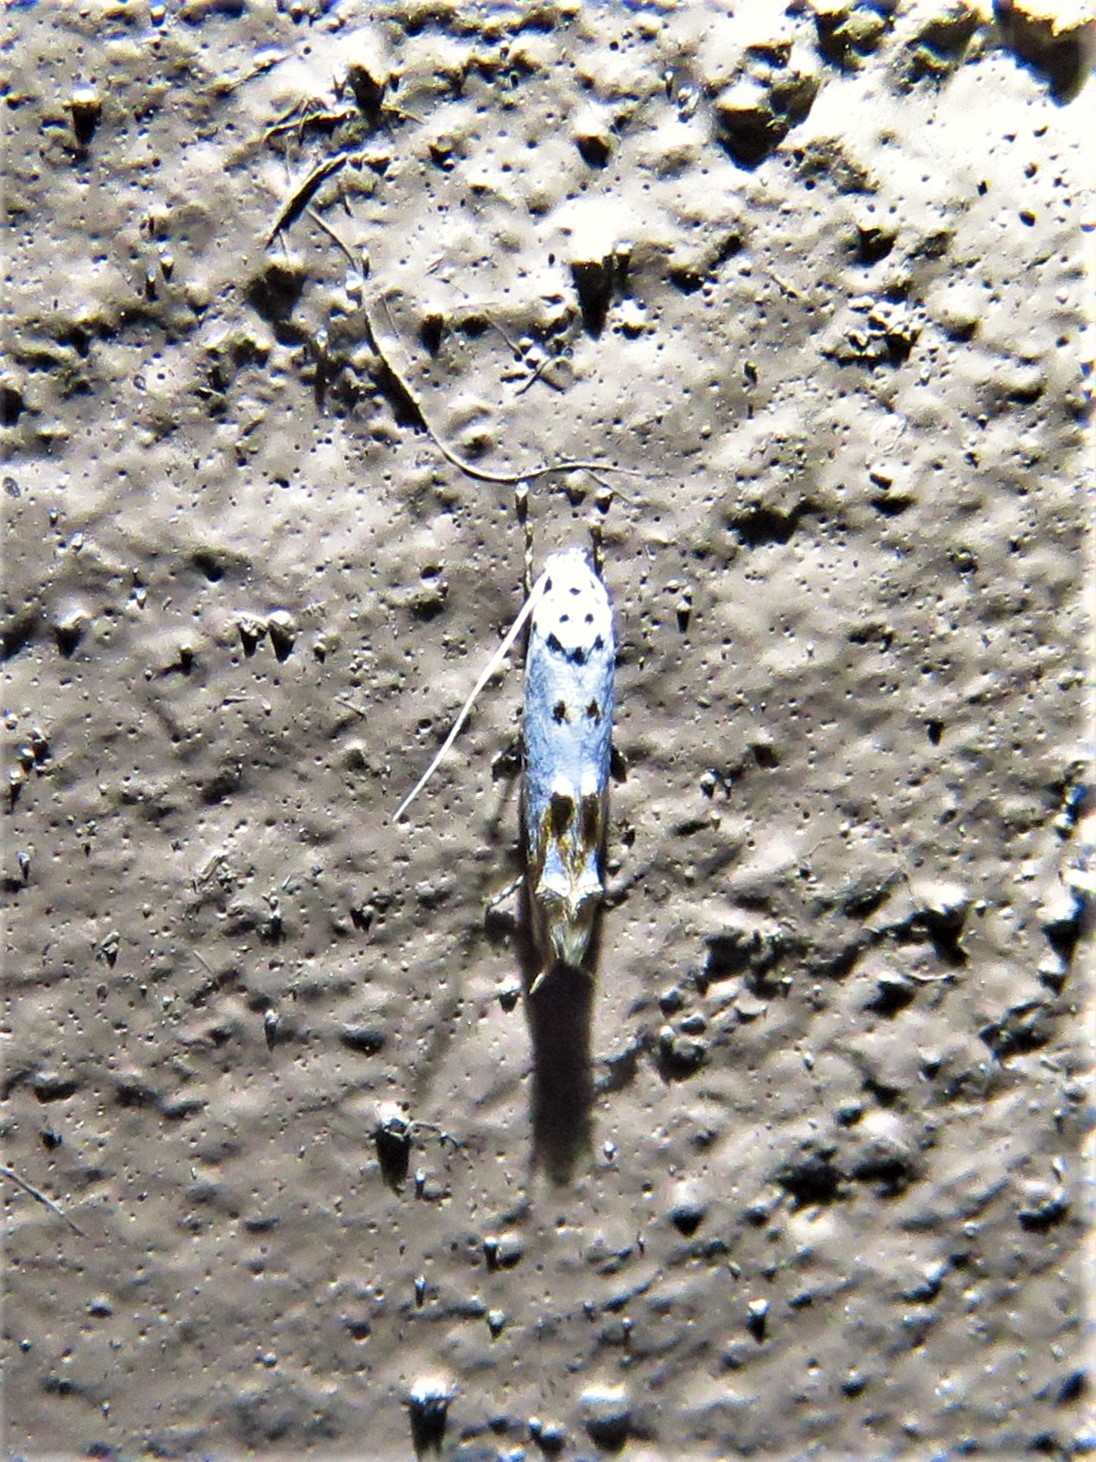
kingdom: Animalia
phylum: Arthropoda
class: Insecta
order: Lepidoptera
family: Momphidae
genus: Mompha
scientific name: Mompha eloisella
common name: Red-streaked mompha moth
